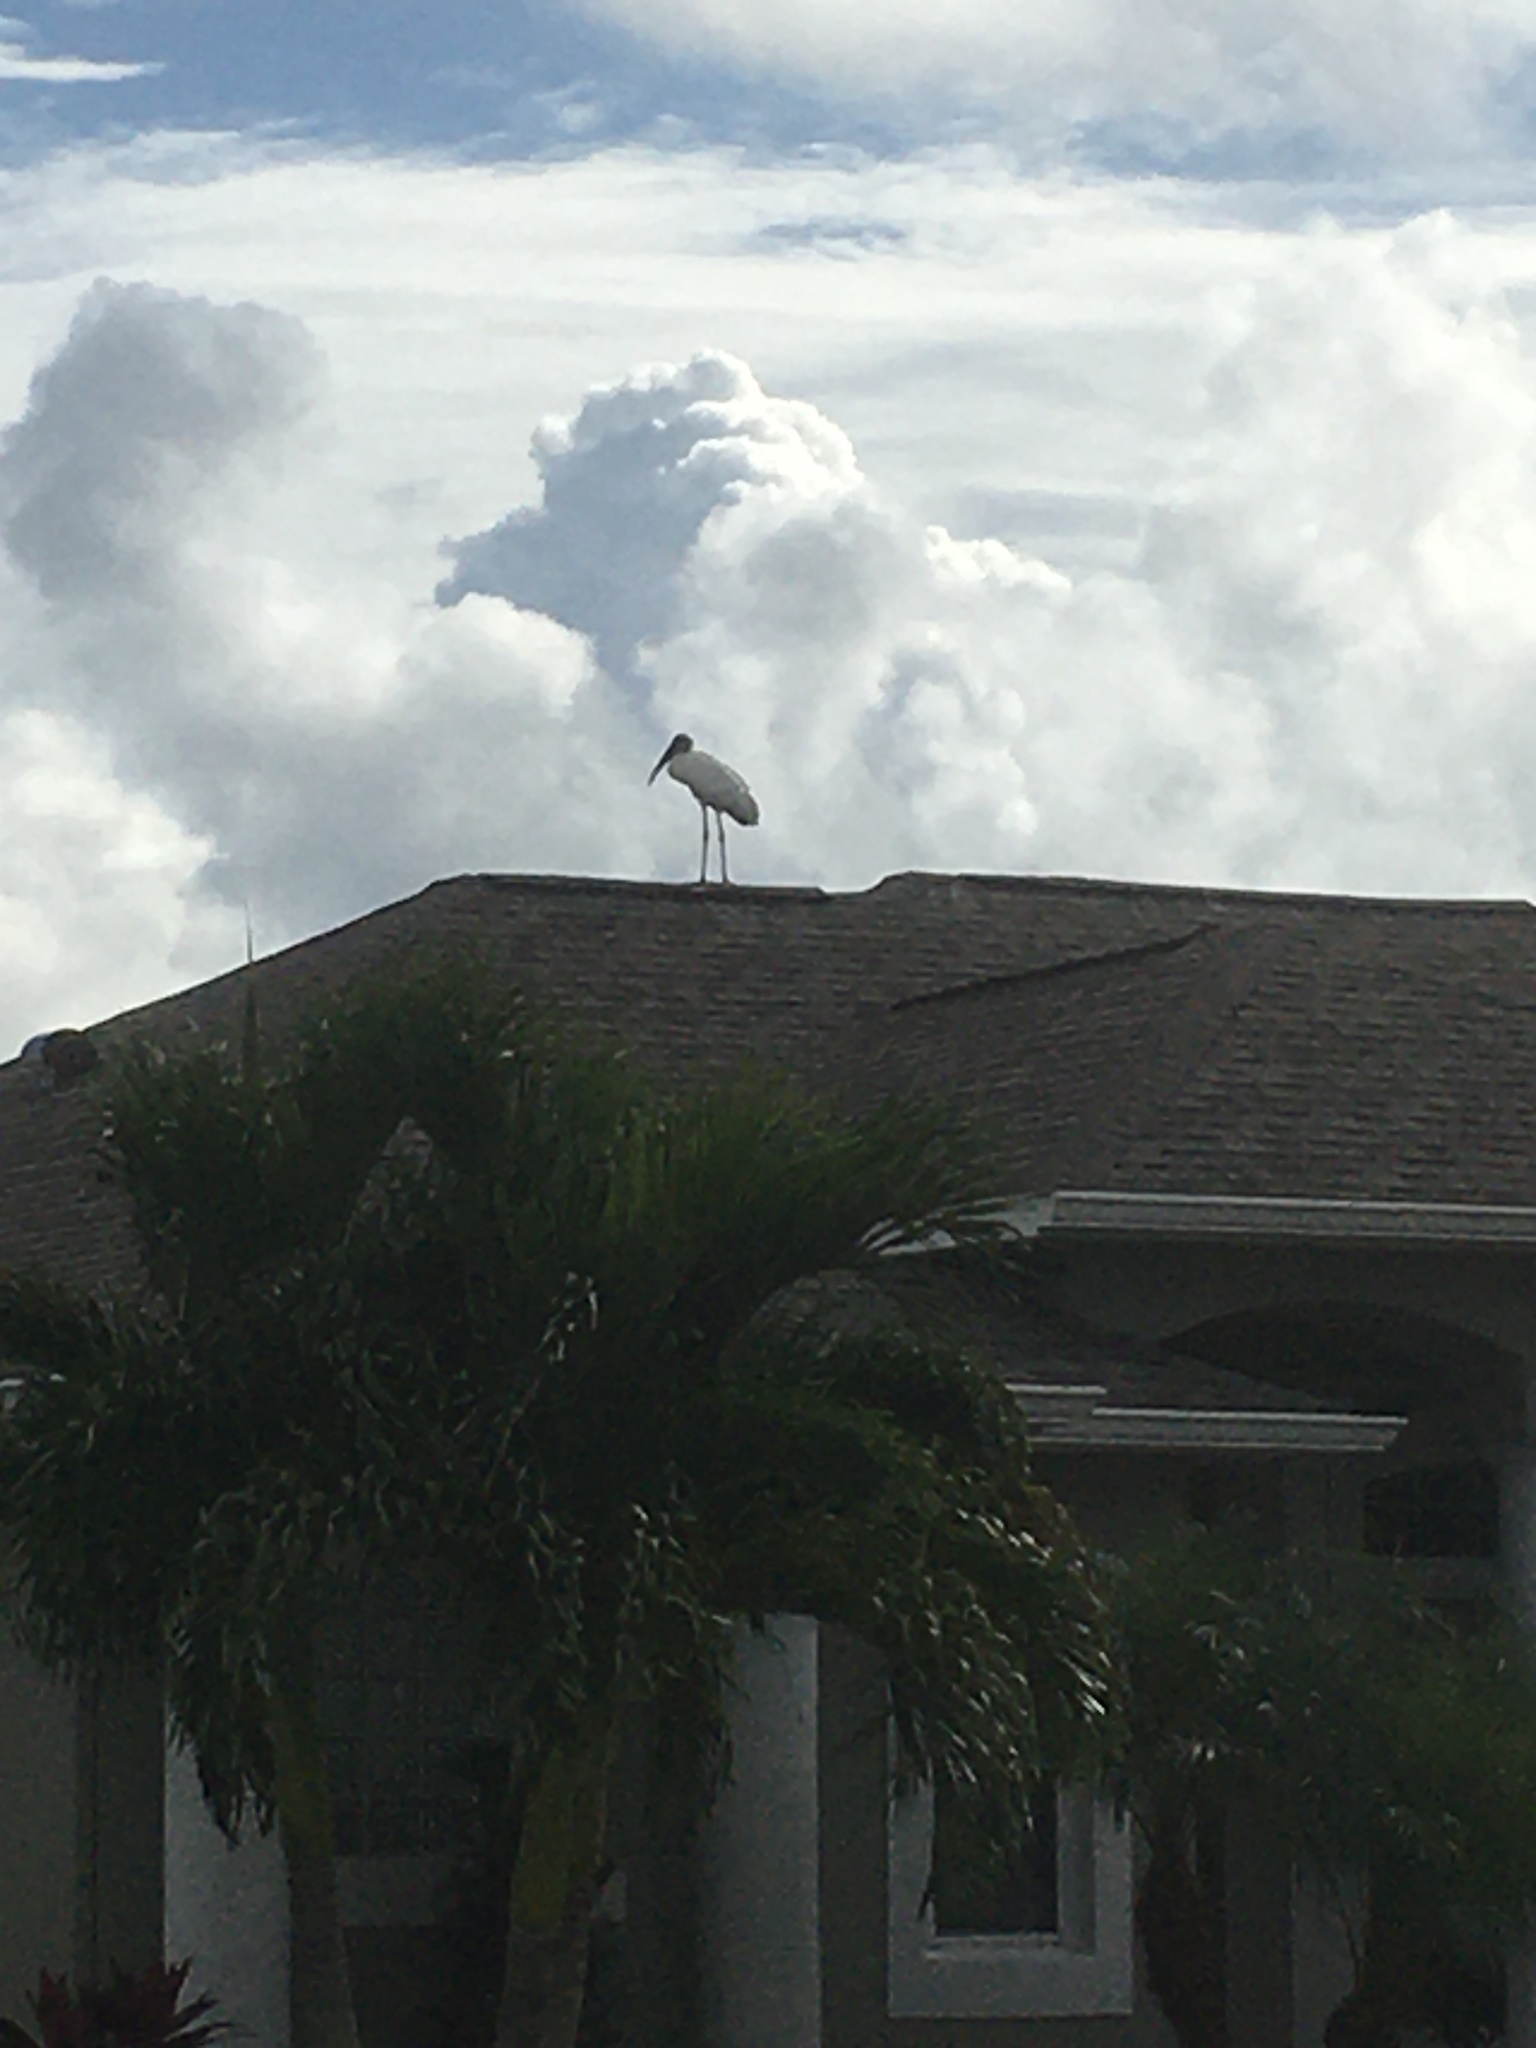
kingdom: Animalia
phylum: Chordata
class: Aves
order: Ciconiiformes
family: Ciconiidae
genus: Mycteria
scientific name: Mycteria americana
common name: Wood stork
